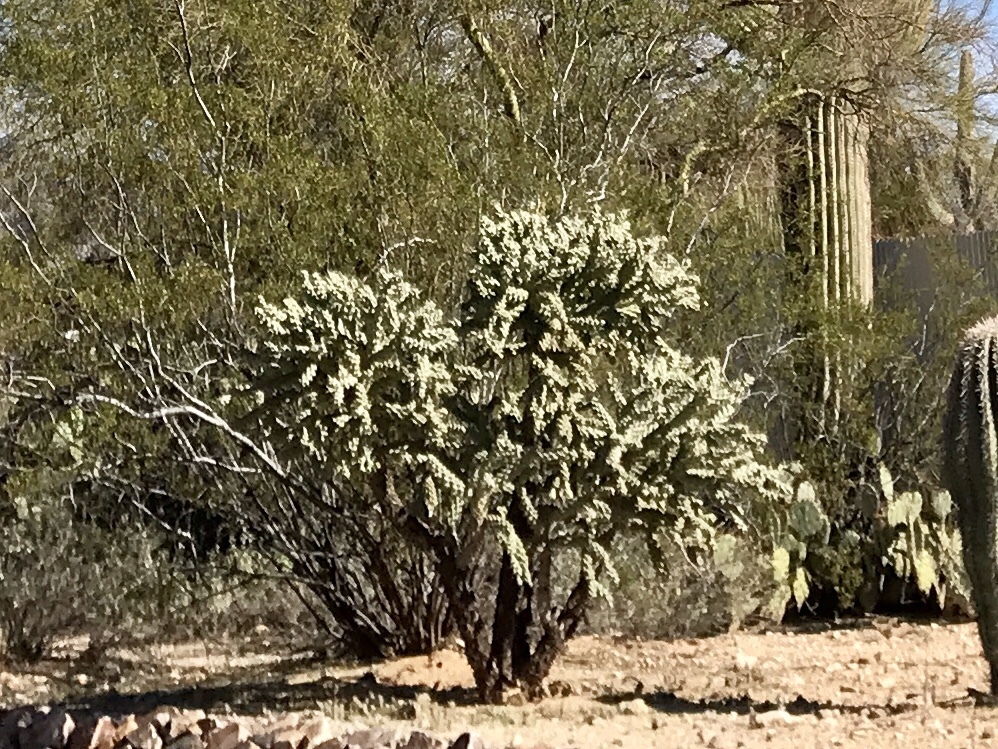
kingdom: Plantae
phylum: Tracheophyta
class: Magnoliopsida
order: Caryophyllales
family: Cactaceae
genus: Cylindropuntia
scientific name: Cylindropuntia fulgida
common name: Jumping cholla
